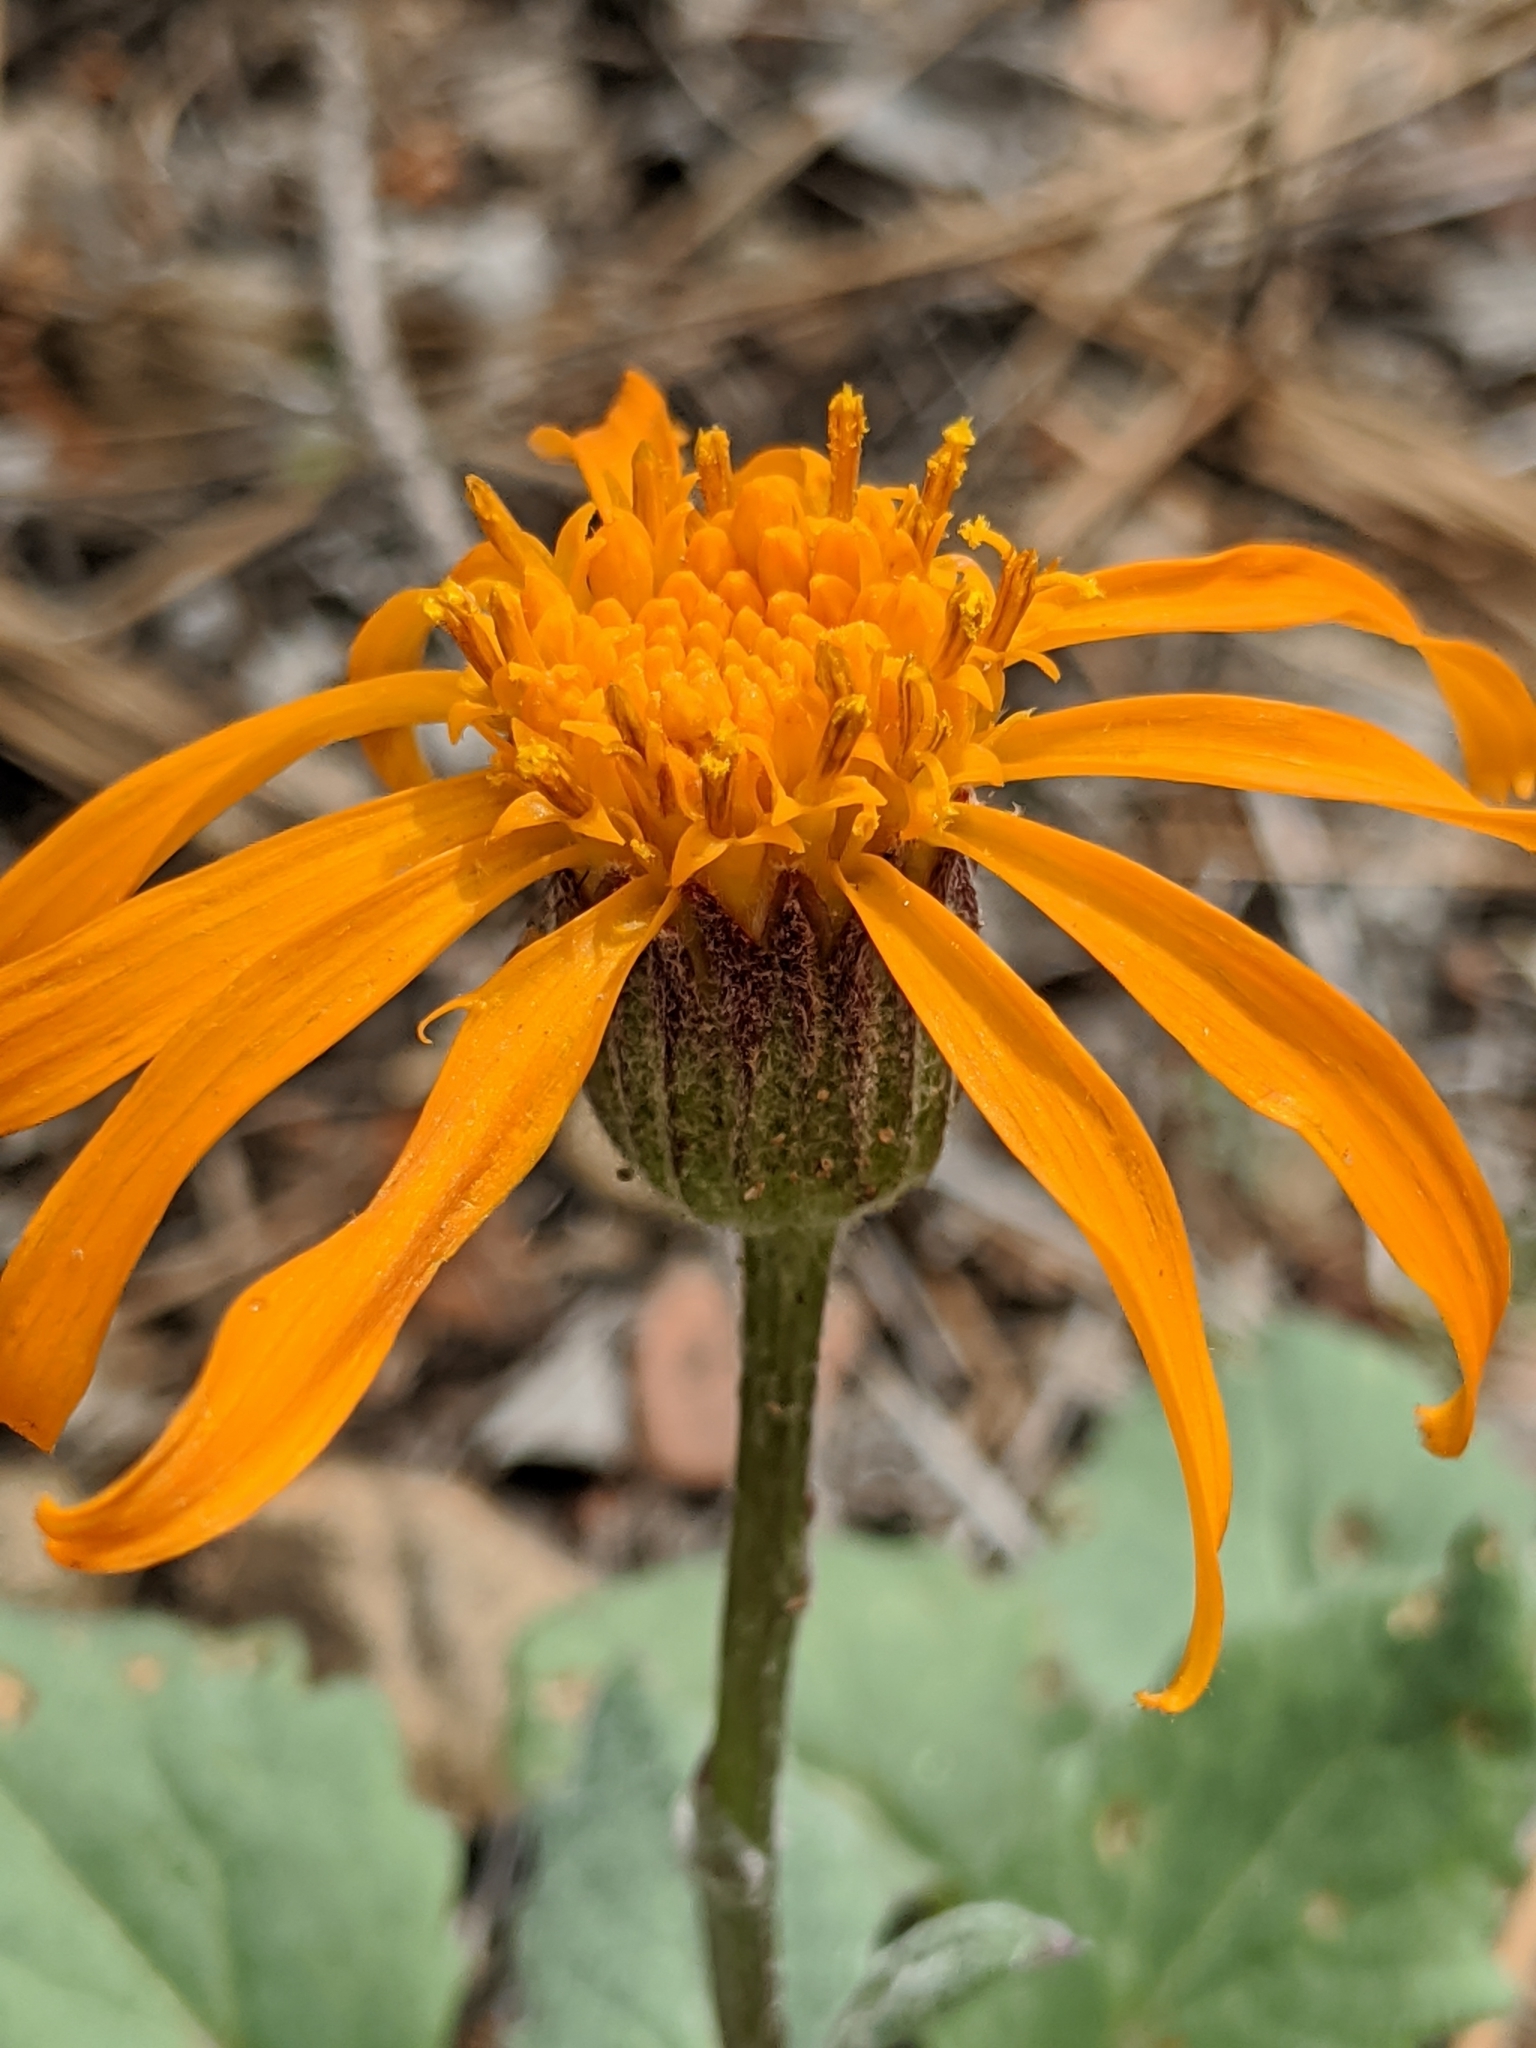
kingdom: Plantae
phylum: Tracheophyta
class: Magnoliopsida
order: Asterales
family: Asteraceae
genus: Packera
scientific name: Packera greenei
